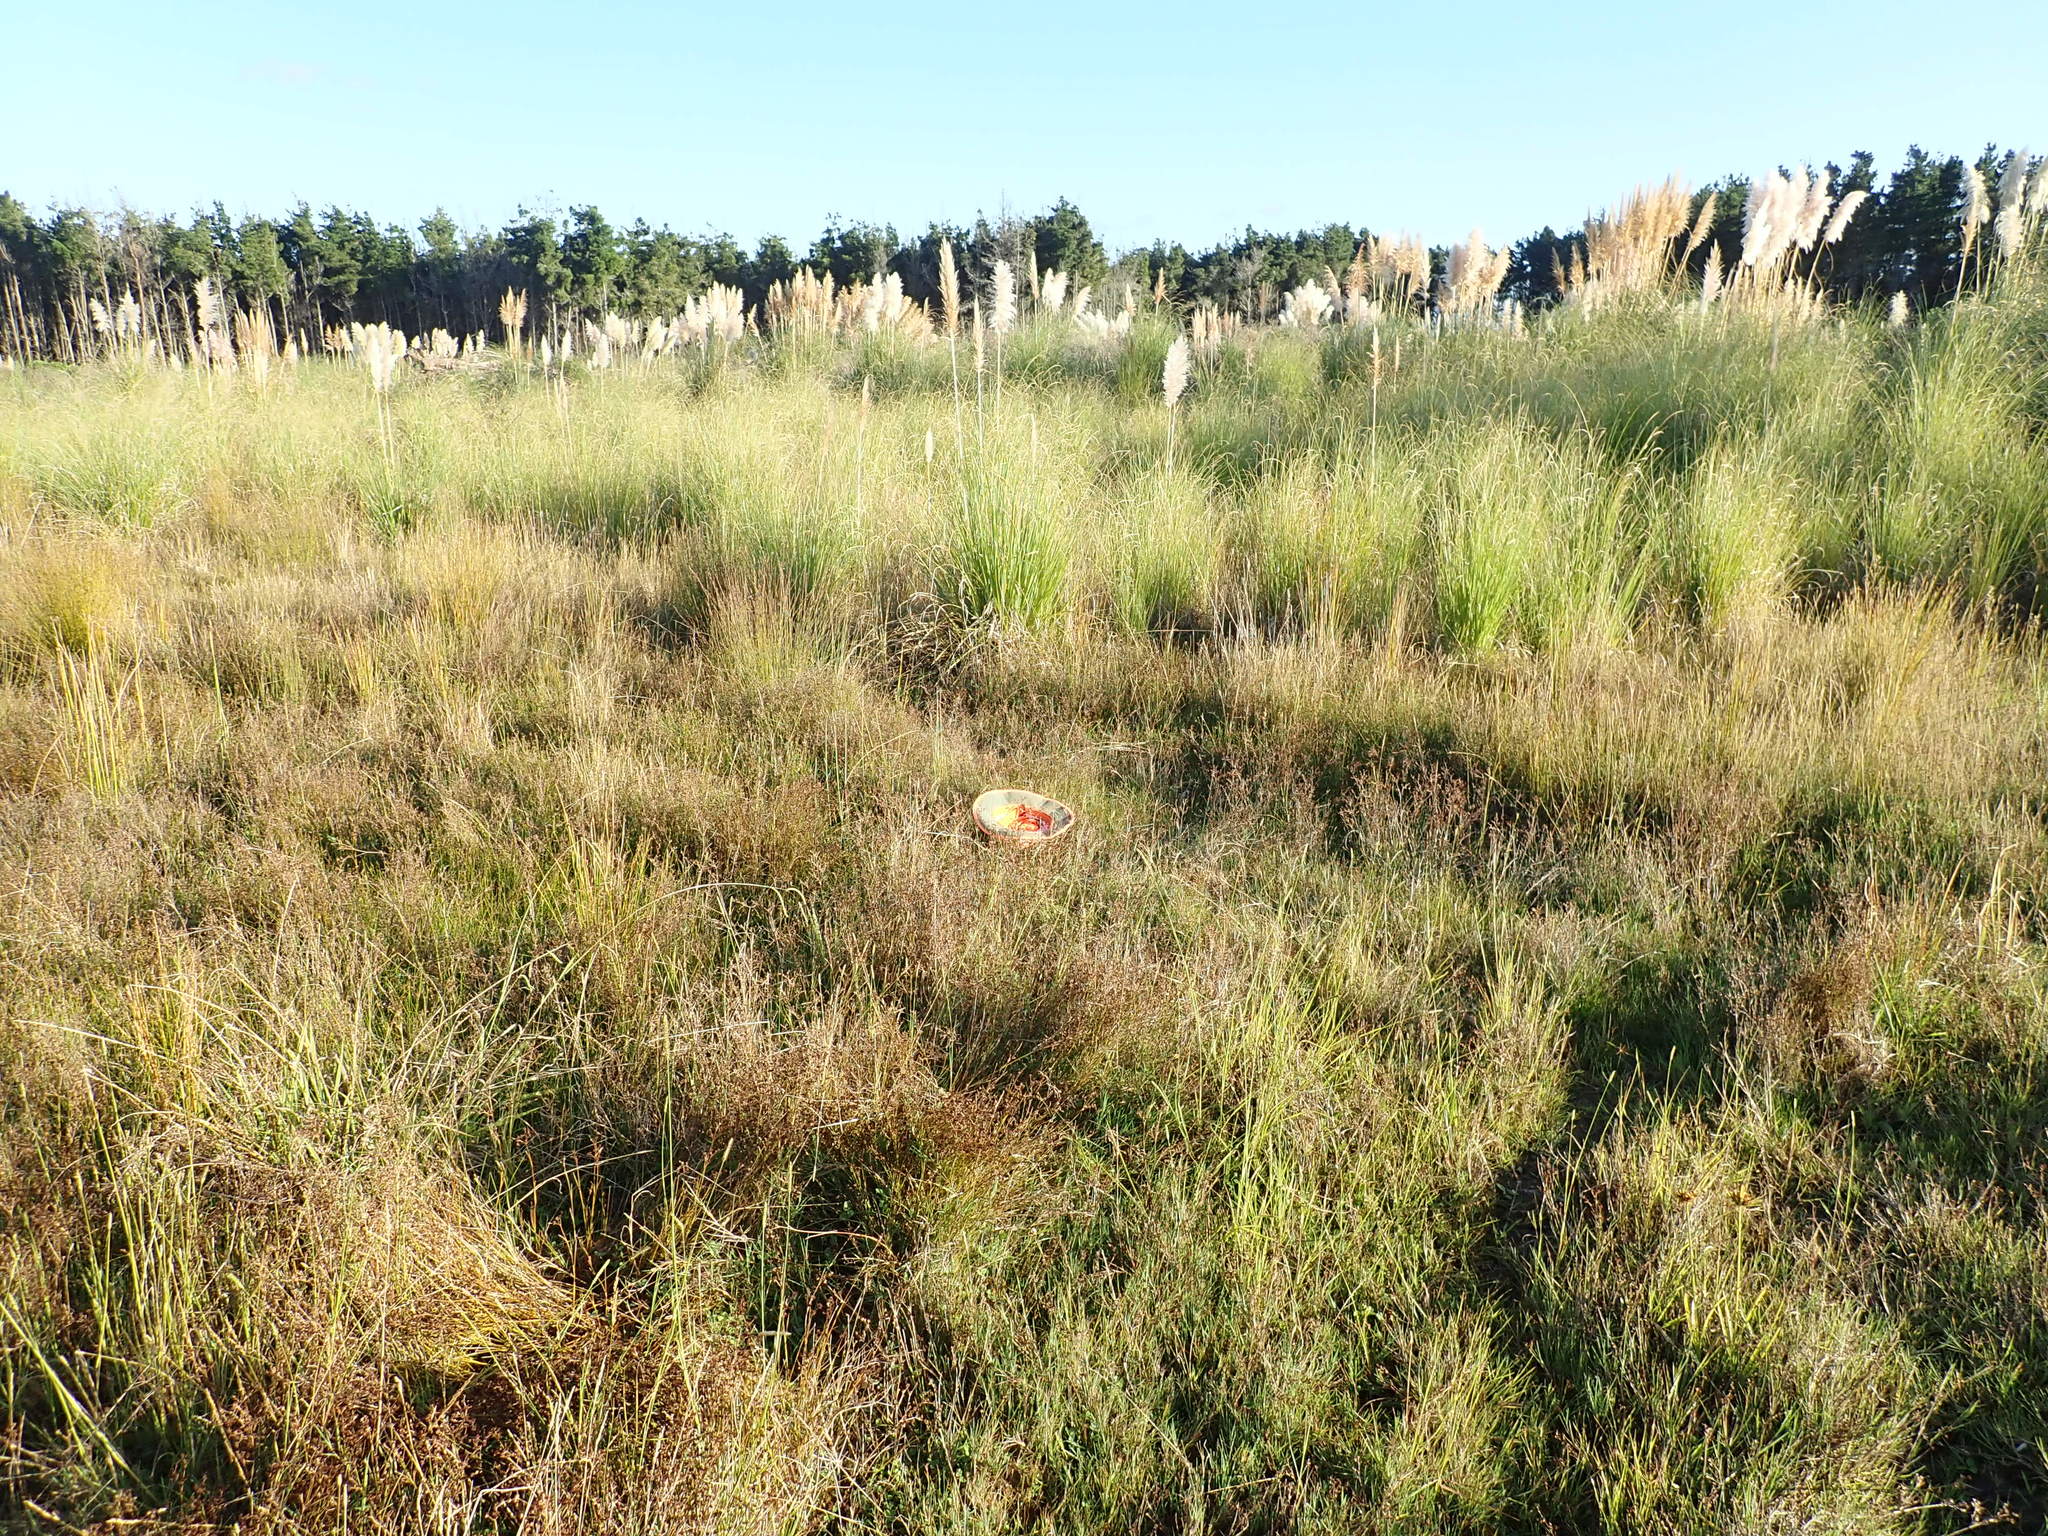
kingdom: Plantae
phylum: Tracheophyta
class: Liliopsida
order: Poales
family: Cyperaceae
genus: Schoenus
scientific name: Schoenus nitens
